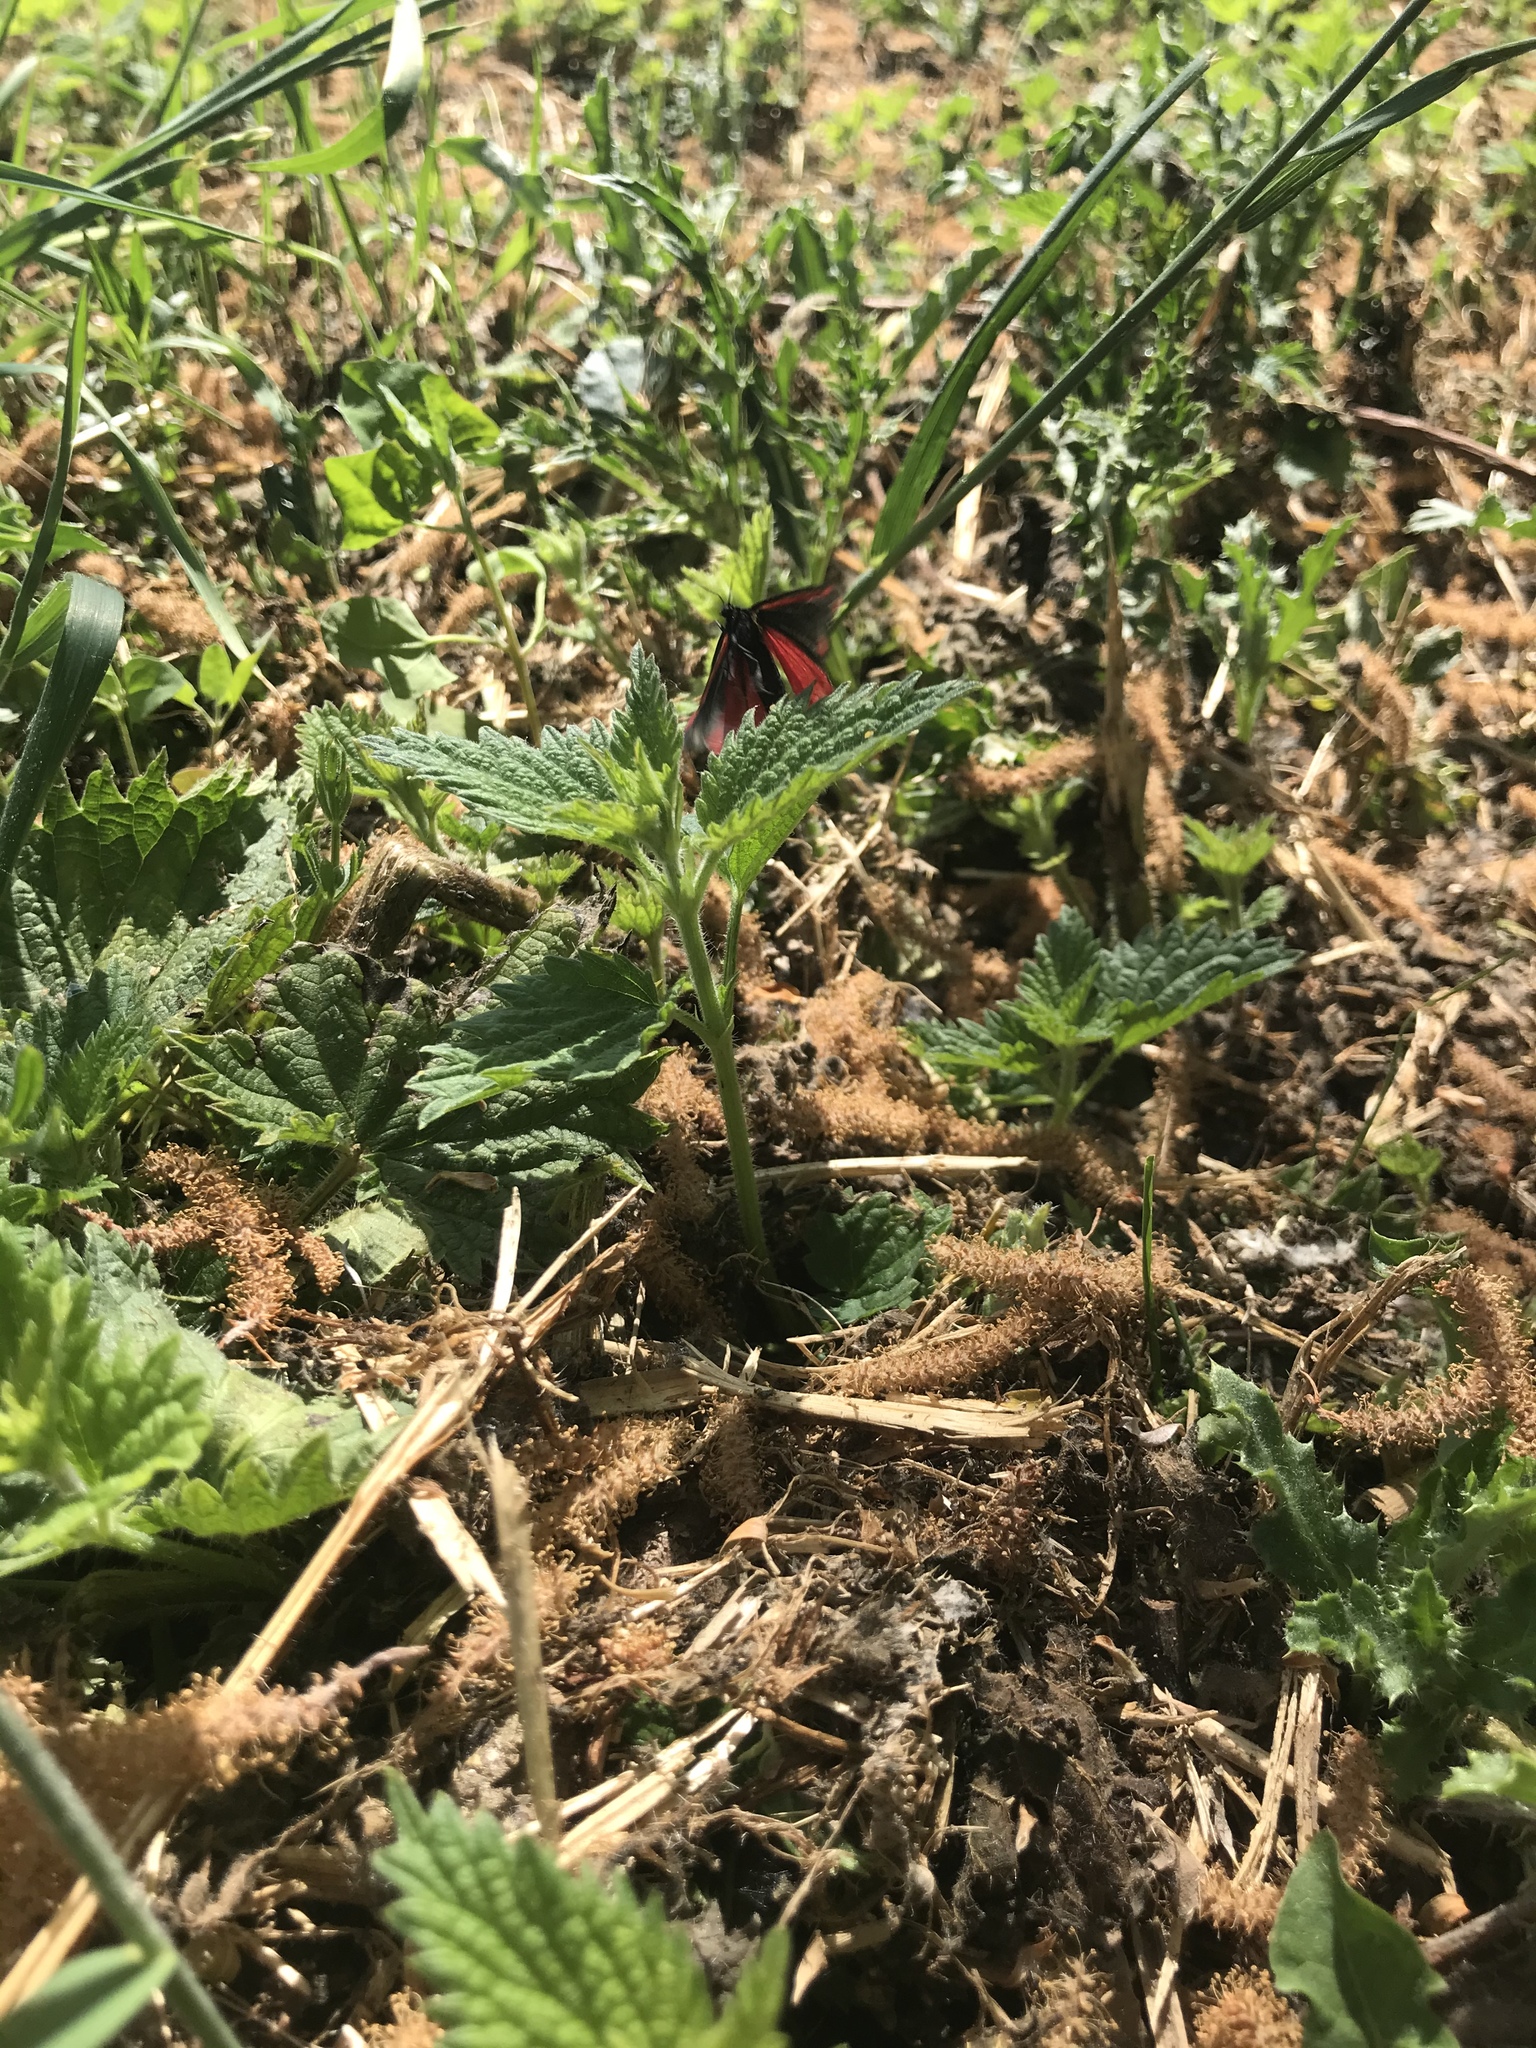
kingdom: Animalia
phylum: Arthropoda
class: Insecta
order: Lepidoptera
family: Erebidae
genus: Tyria
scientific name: Tyria jacobaeae
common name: Cinnabar
